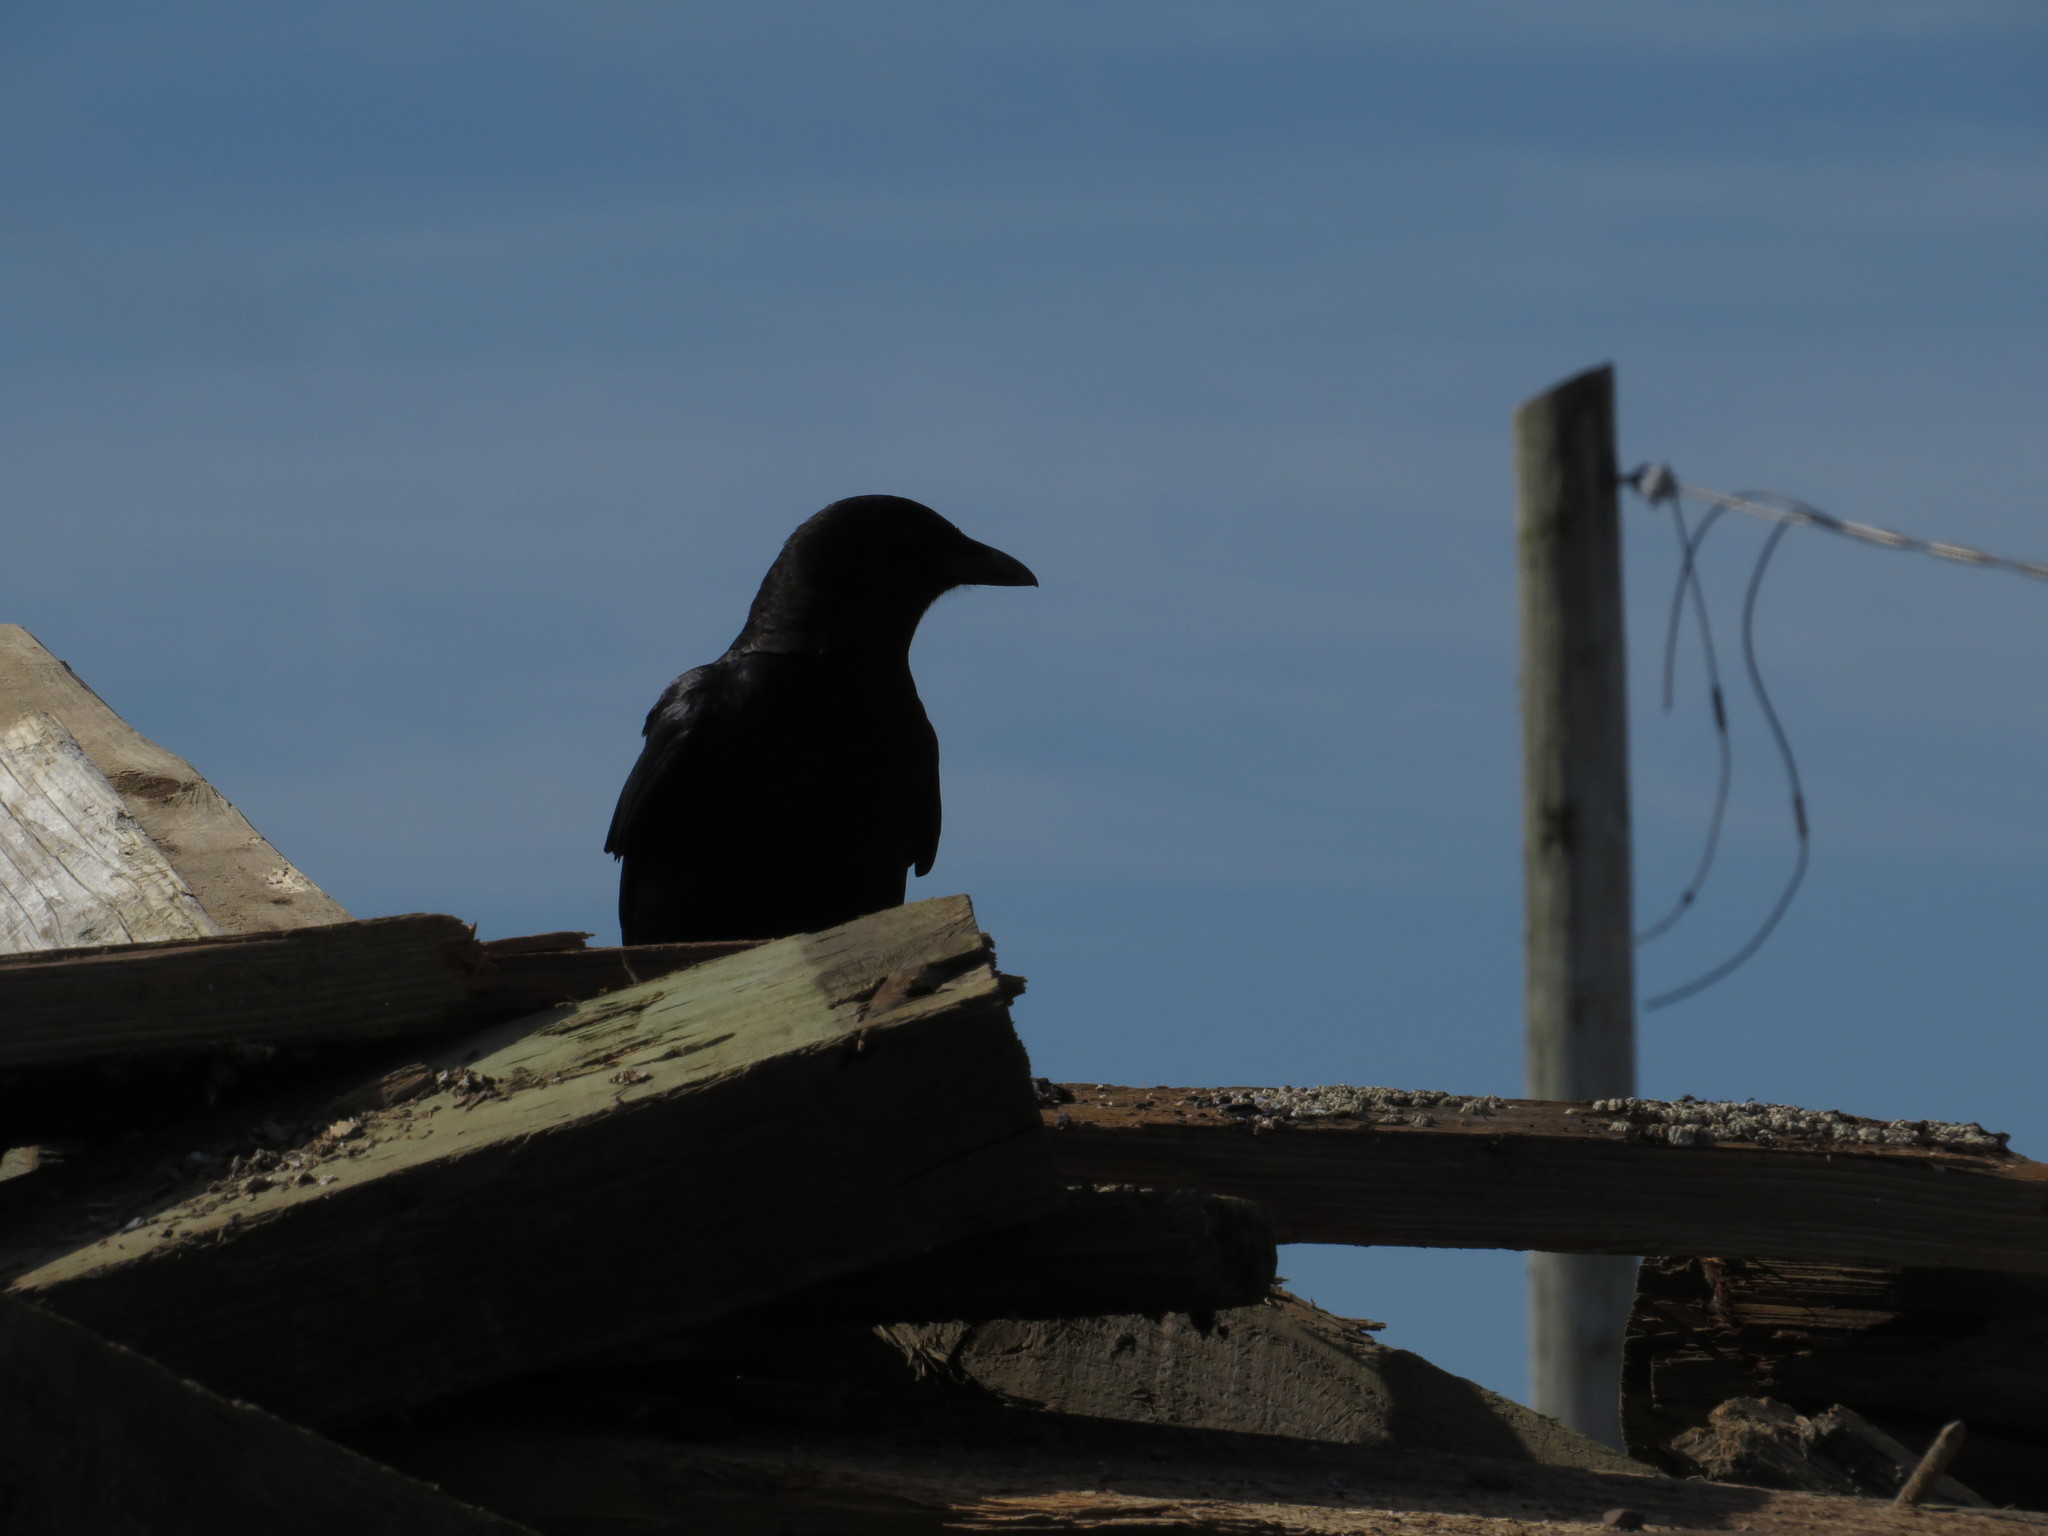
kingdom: Animalia
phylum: Chordata
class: Aves
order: Passeriformes
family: Corvidae
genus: Corvus
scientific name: Corvus brachyrhynchos
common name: American crow
